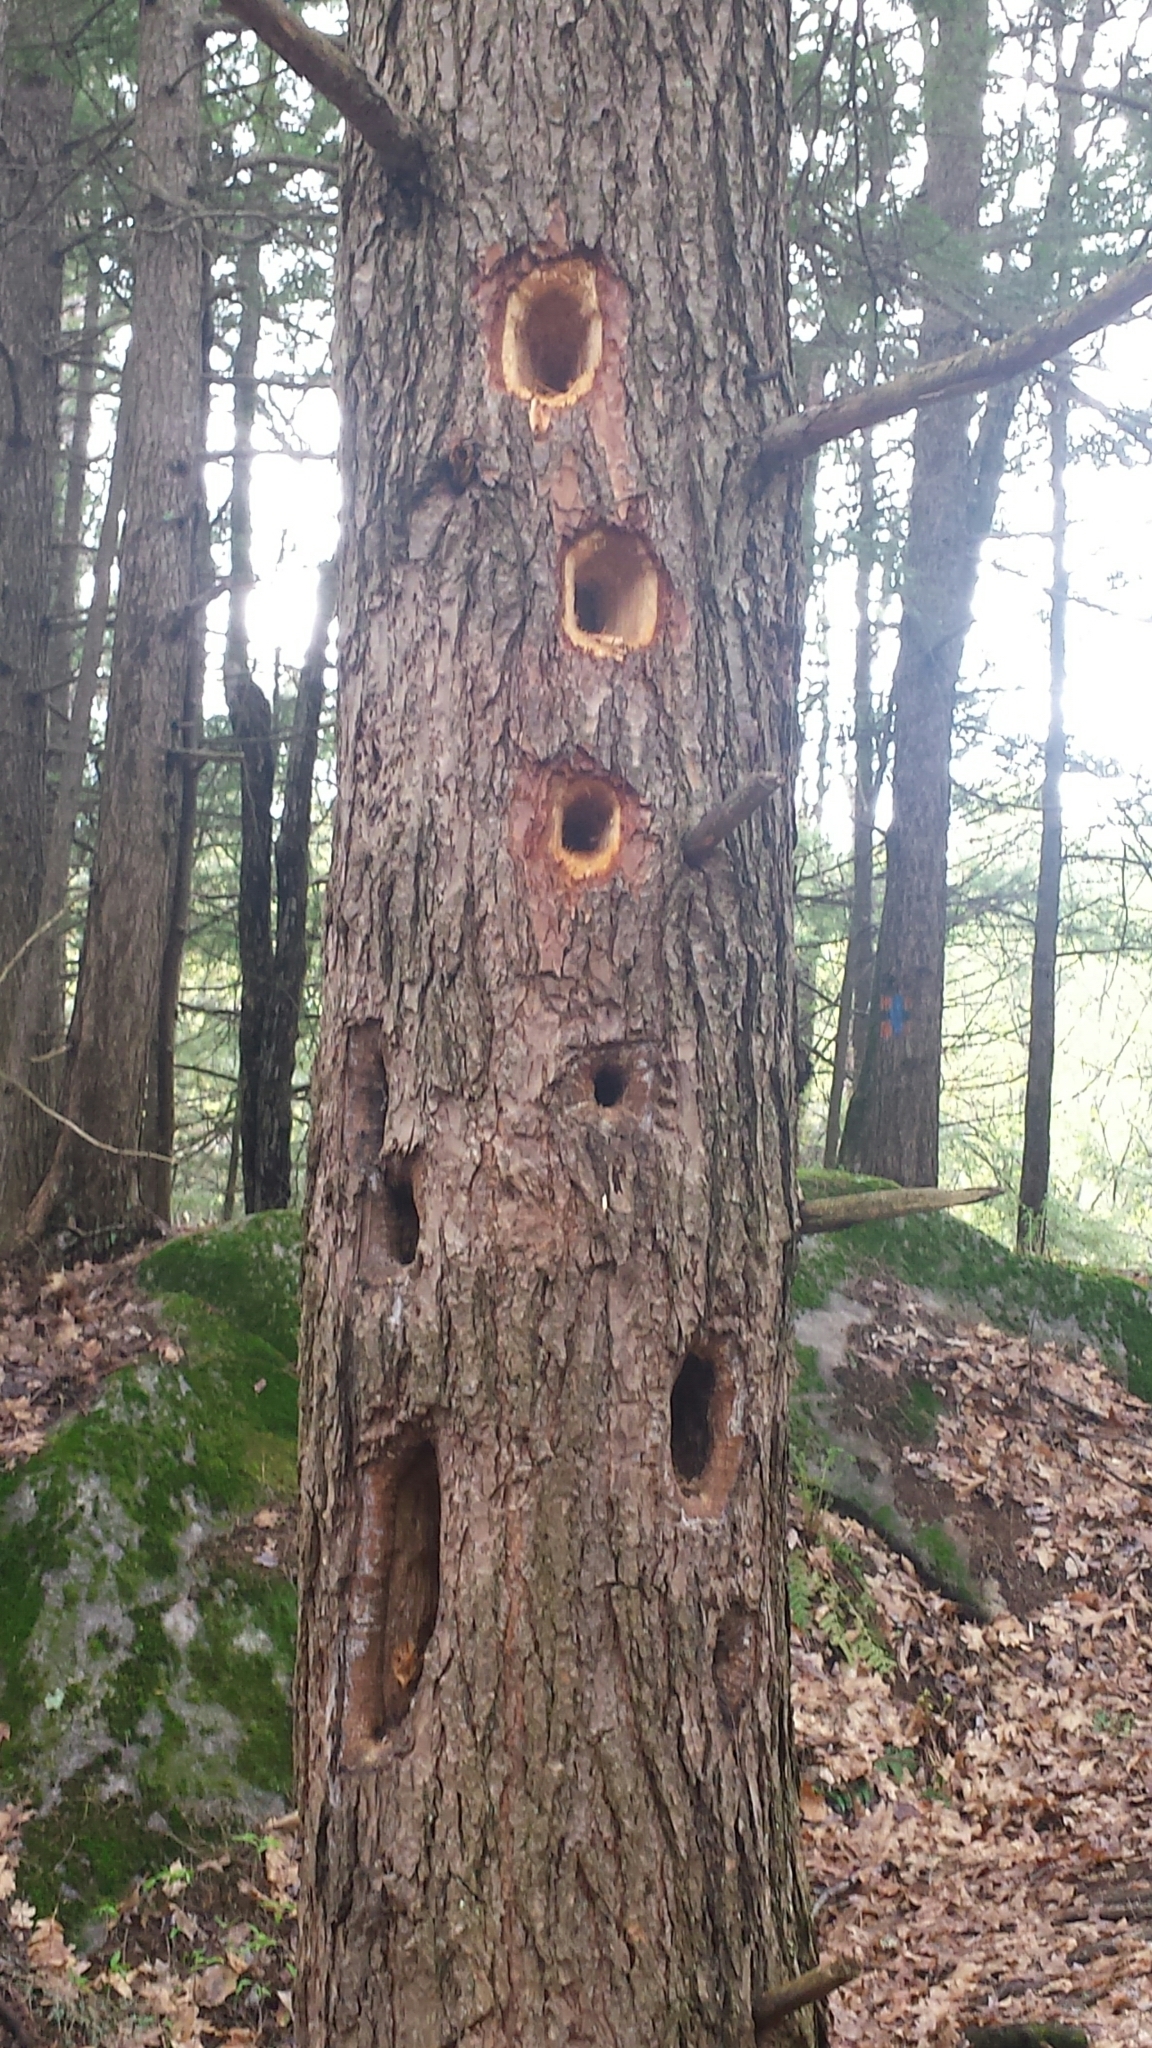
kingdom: Animalia
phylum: Chordata
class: Aves
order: Piciformes
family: Picidae
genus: Dryocopus
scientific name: Dryocopus pileatus
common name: Pileated woodpecker
